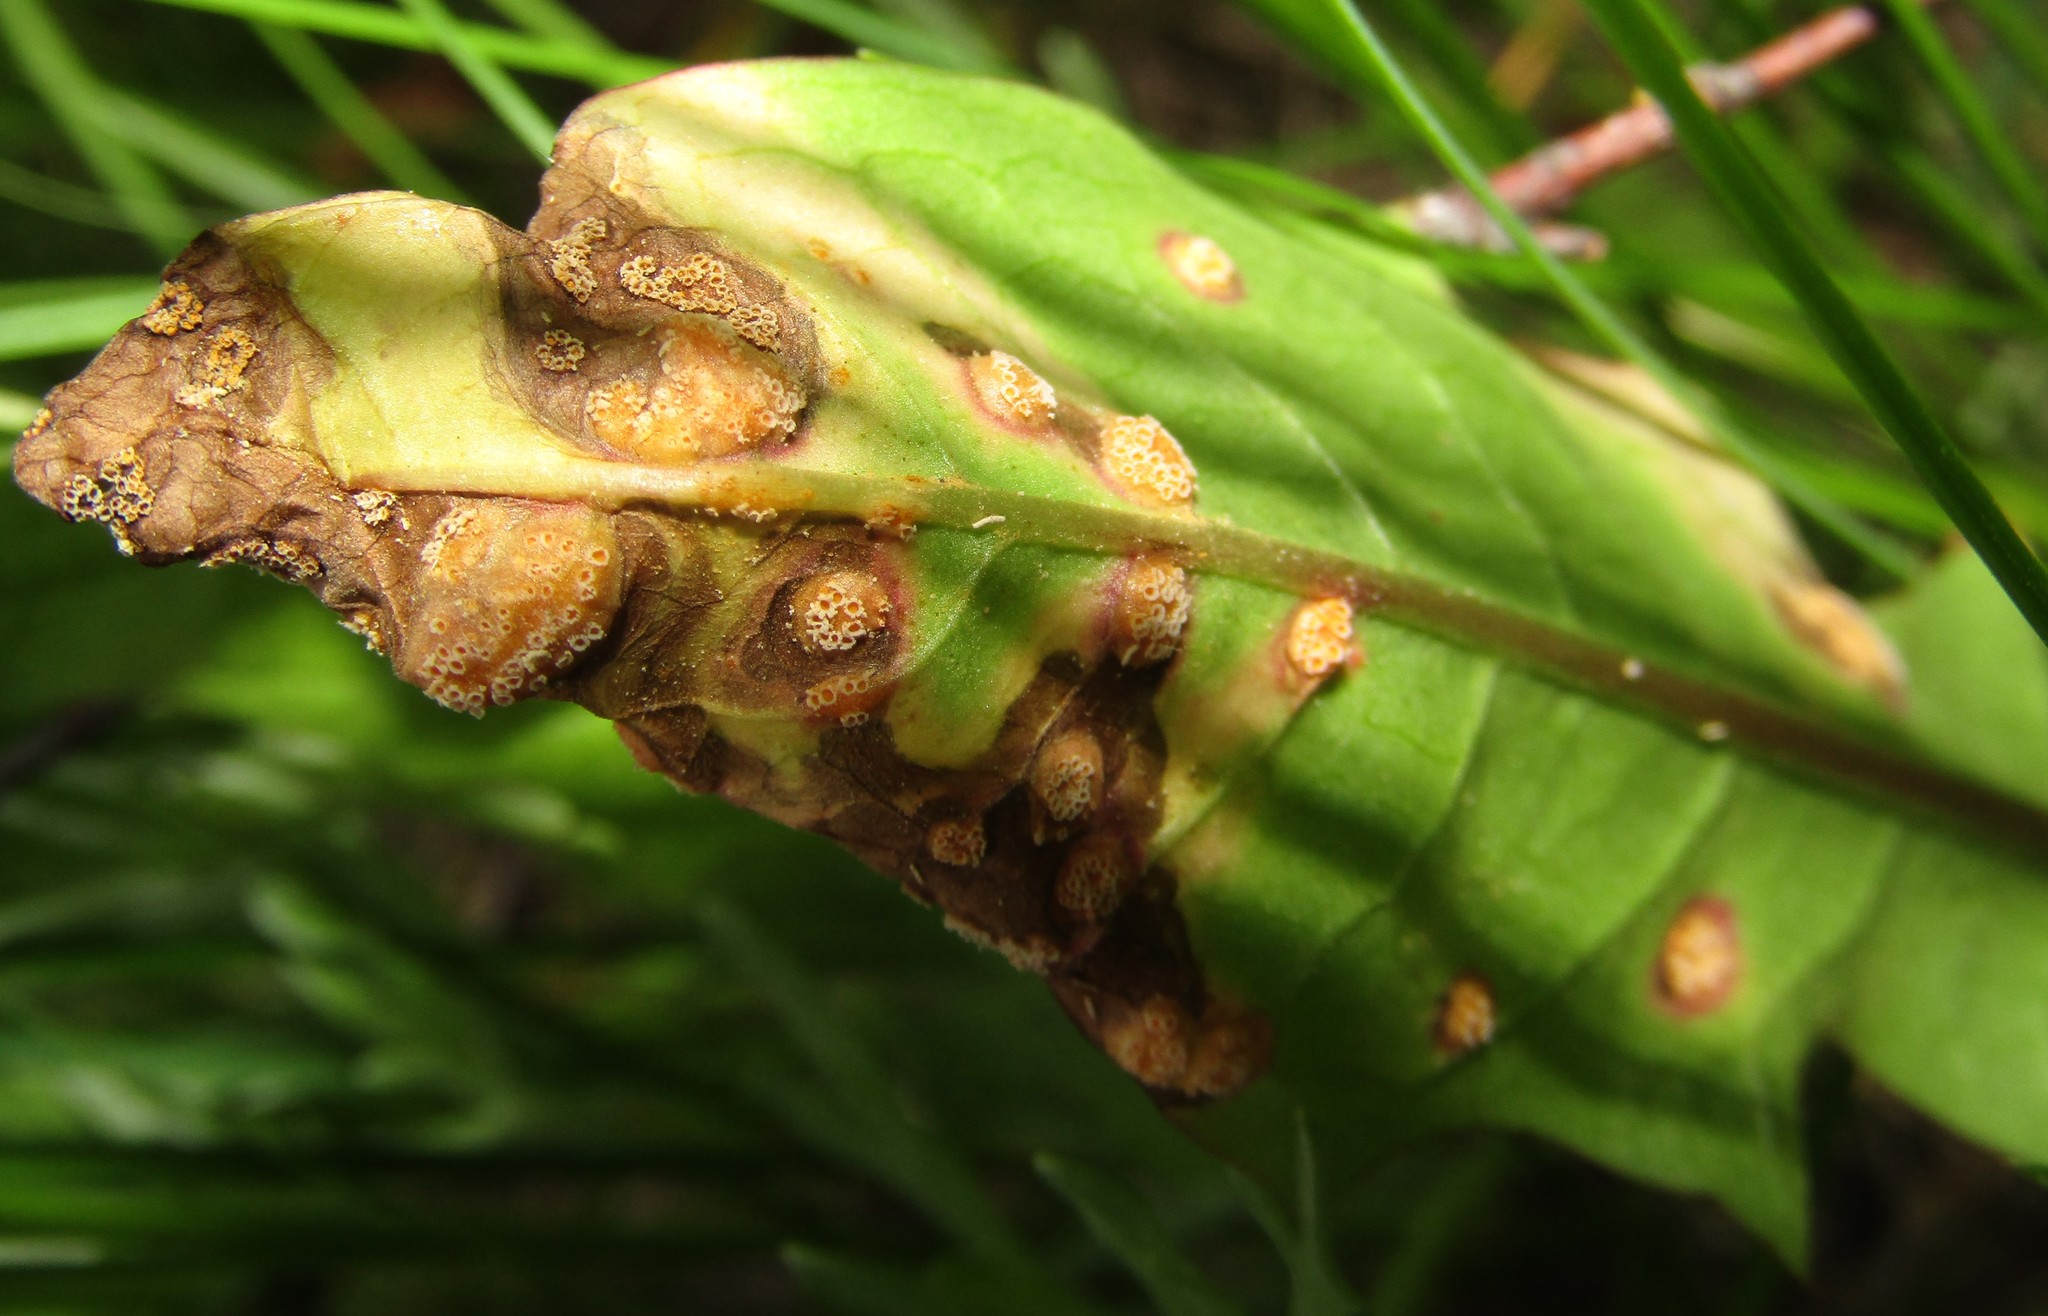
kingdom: Fungi
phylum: Basidiomycota
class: Pucciniomycetes
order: Pucciniales
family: Pucciniaceae
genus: Puccinia
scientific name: Puccinia dioicae
